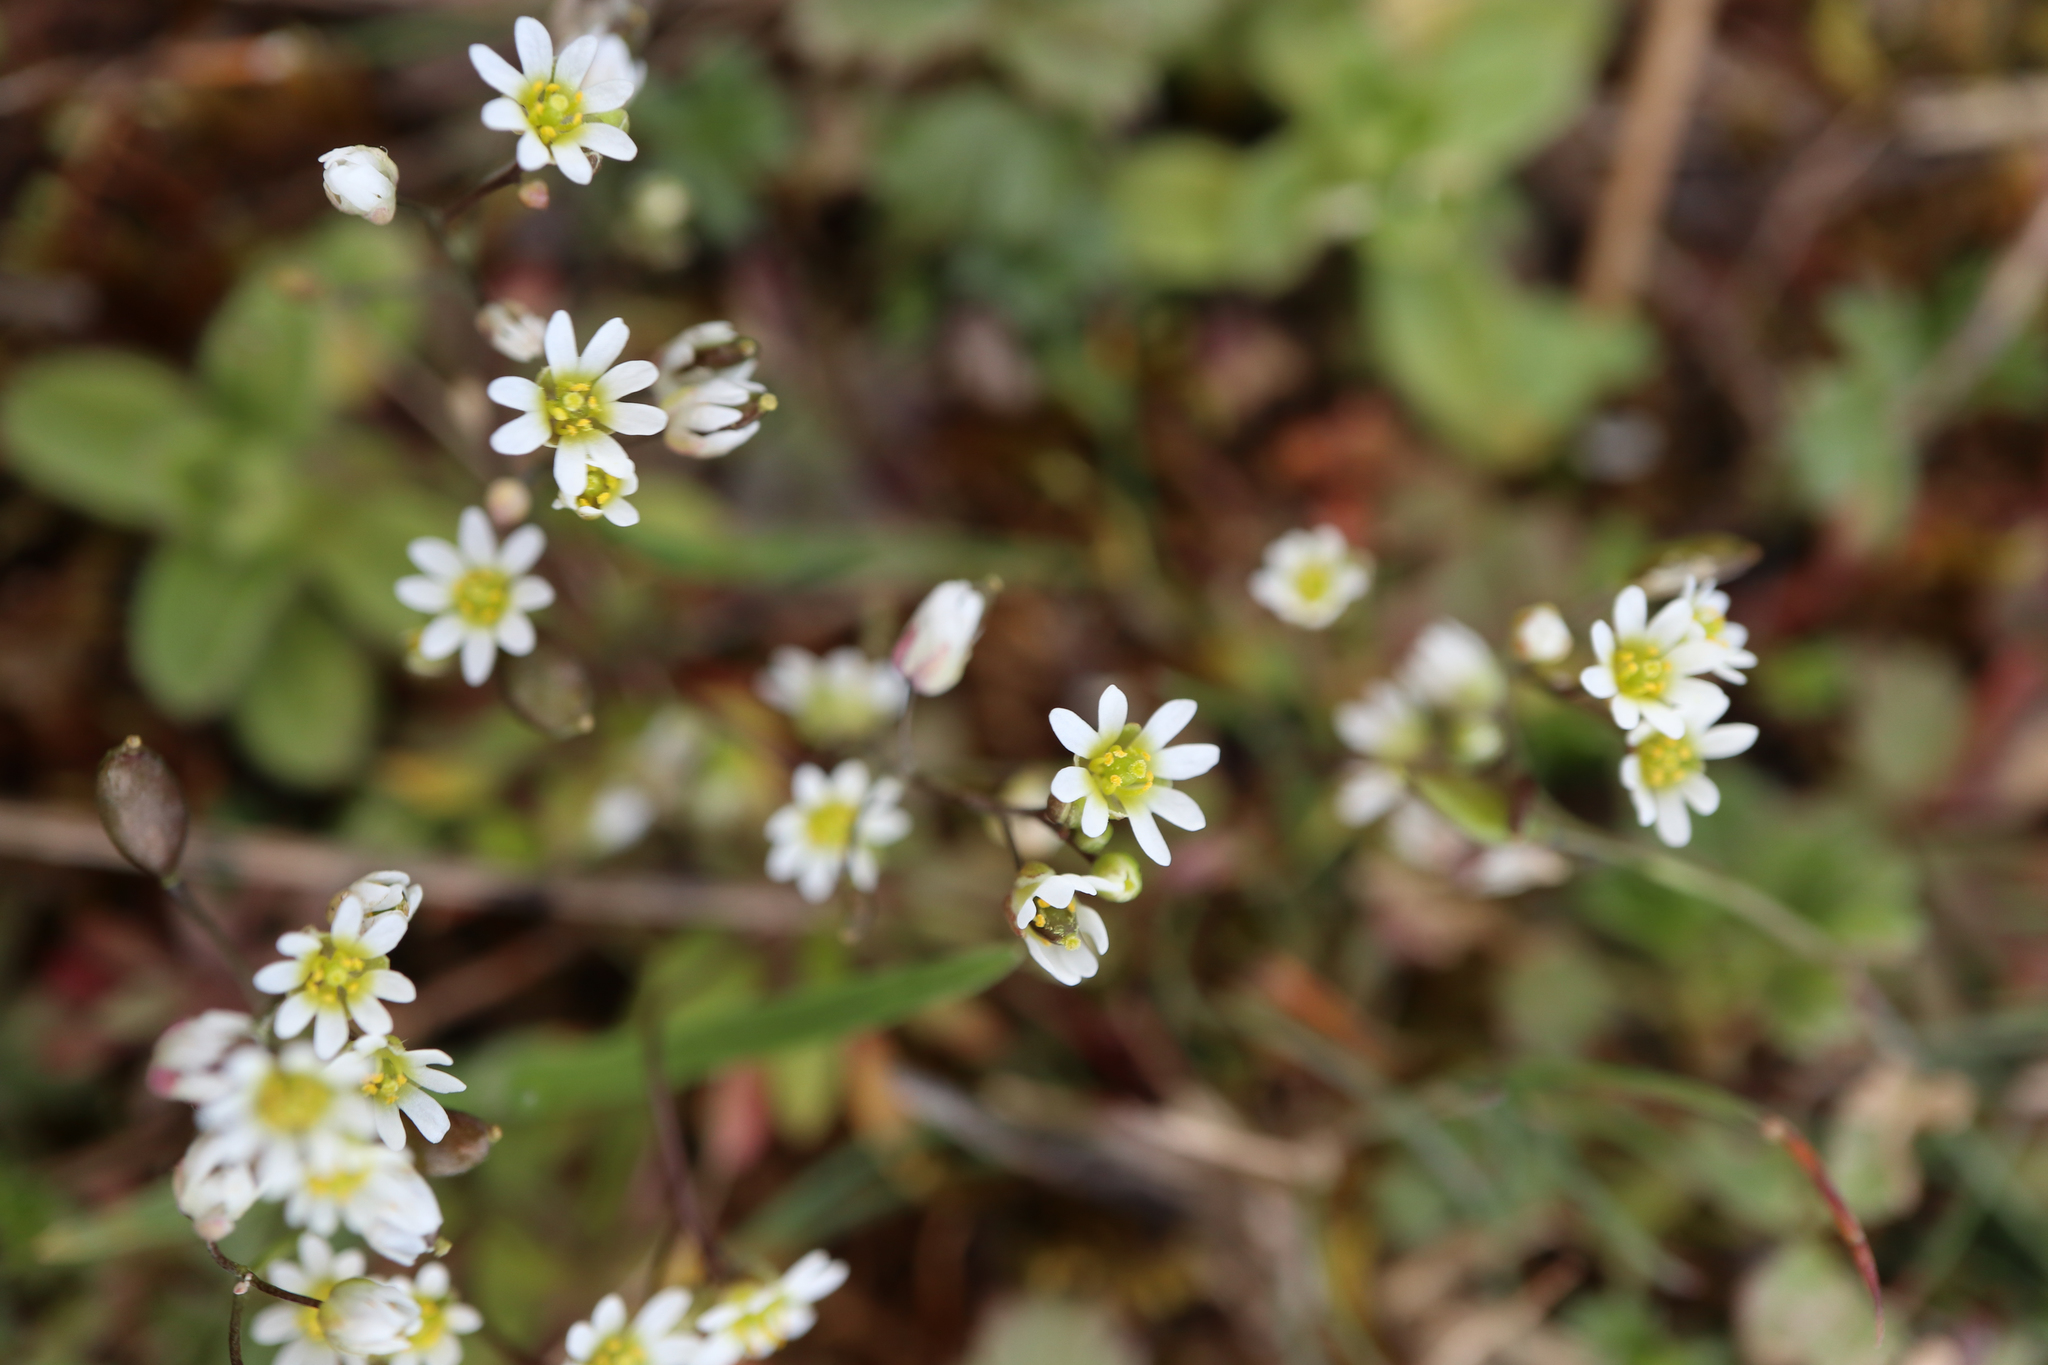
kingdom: Plantae
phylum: Tracheophyta
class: Magnoliopsida
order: Brassicales
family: Brassicaceae
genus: Draba
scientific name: Draba verna
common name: Spring draba
